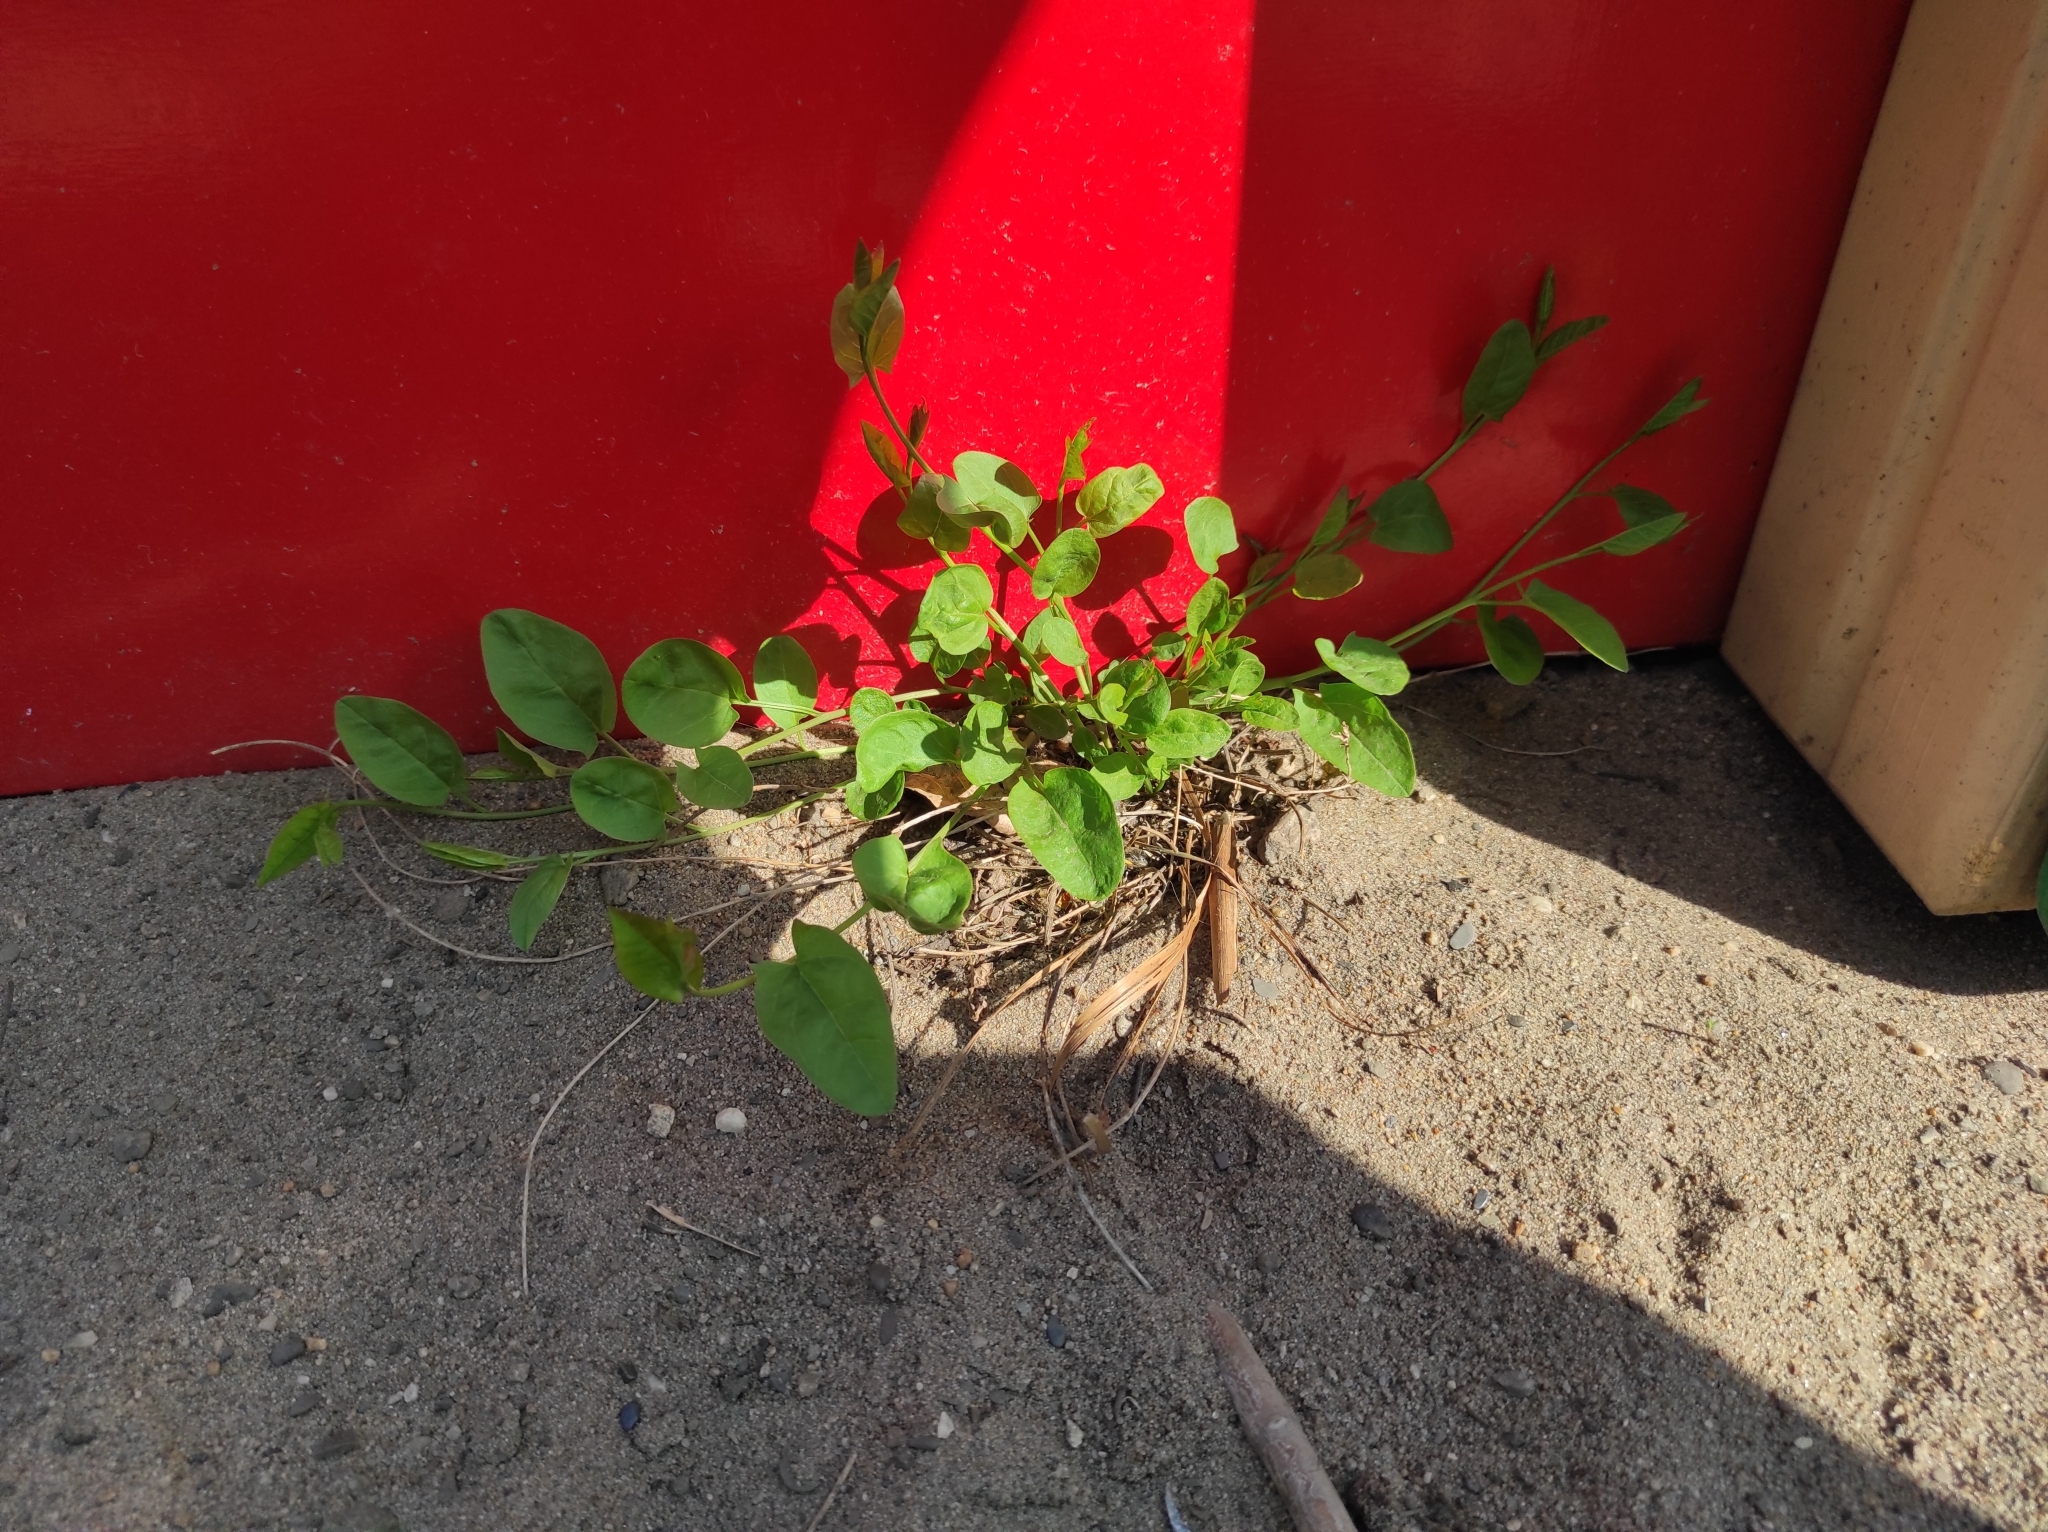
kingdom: Plantae
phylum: Tracheophyta
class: Magnoliopsida
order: Solanales
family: Convolvulaceae
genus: Convolvulus
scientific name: Convolvulus arvensis
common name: Field bindweed
